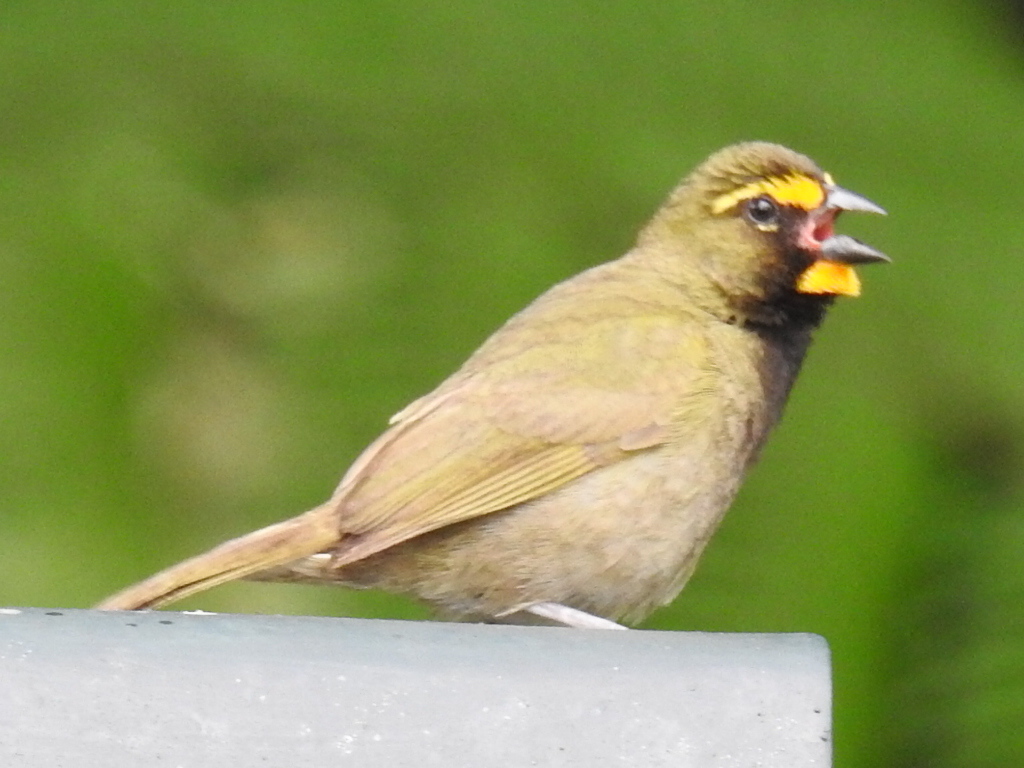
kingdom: Animalia
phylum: Chordata
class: Aves
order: Passeriformes
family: Thraupidae
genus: Tiaris
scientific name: Tiaris olivaceus
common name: Yellow-faced grassquit
